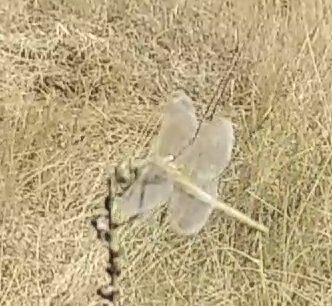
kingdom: Animalia
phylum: Arthropoda
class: Insecta
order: Odonata
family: Libellulidae
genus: Sympetrum
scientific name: Sympetrum fonscolombii
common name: Red-veined darter
